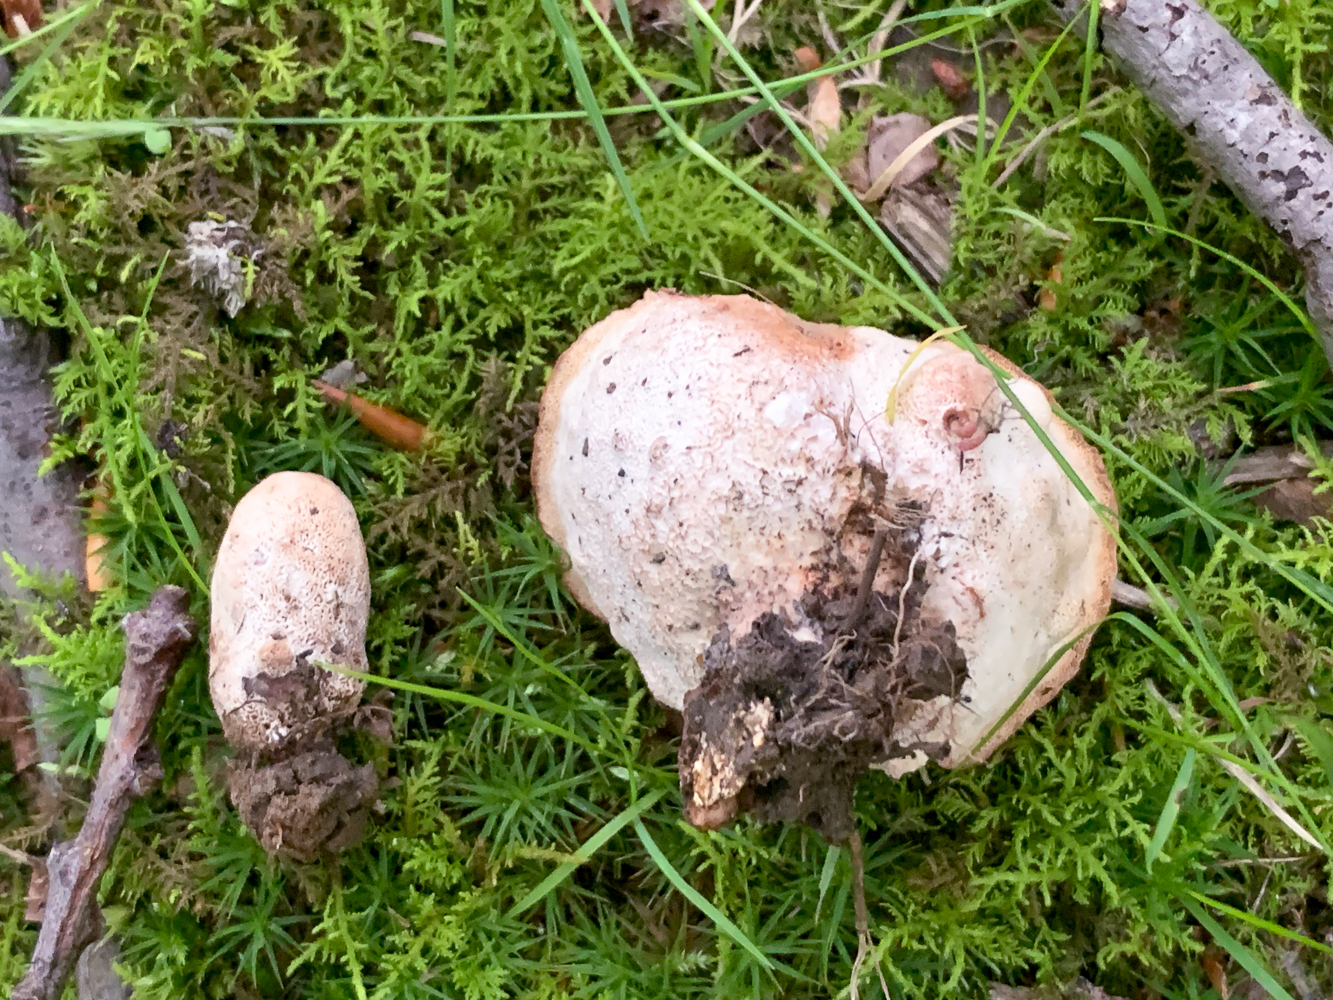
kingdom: Fungi
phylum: Basidiomycota
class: Agaricomycetes
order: Polyporales
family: Podoscyphaceae
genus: Abortiporus
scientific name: Abortiporus biennis
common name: Blushing rosette
